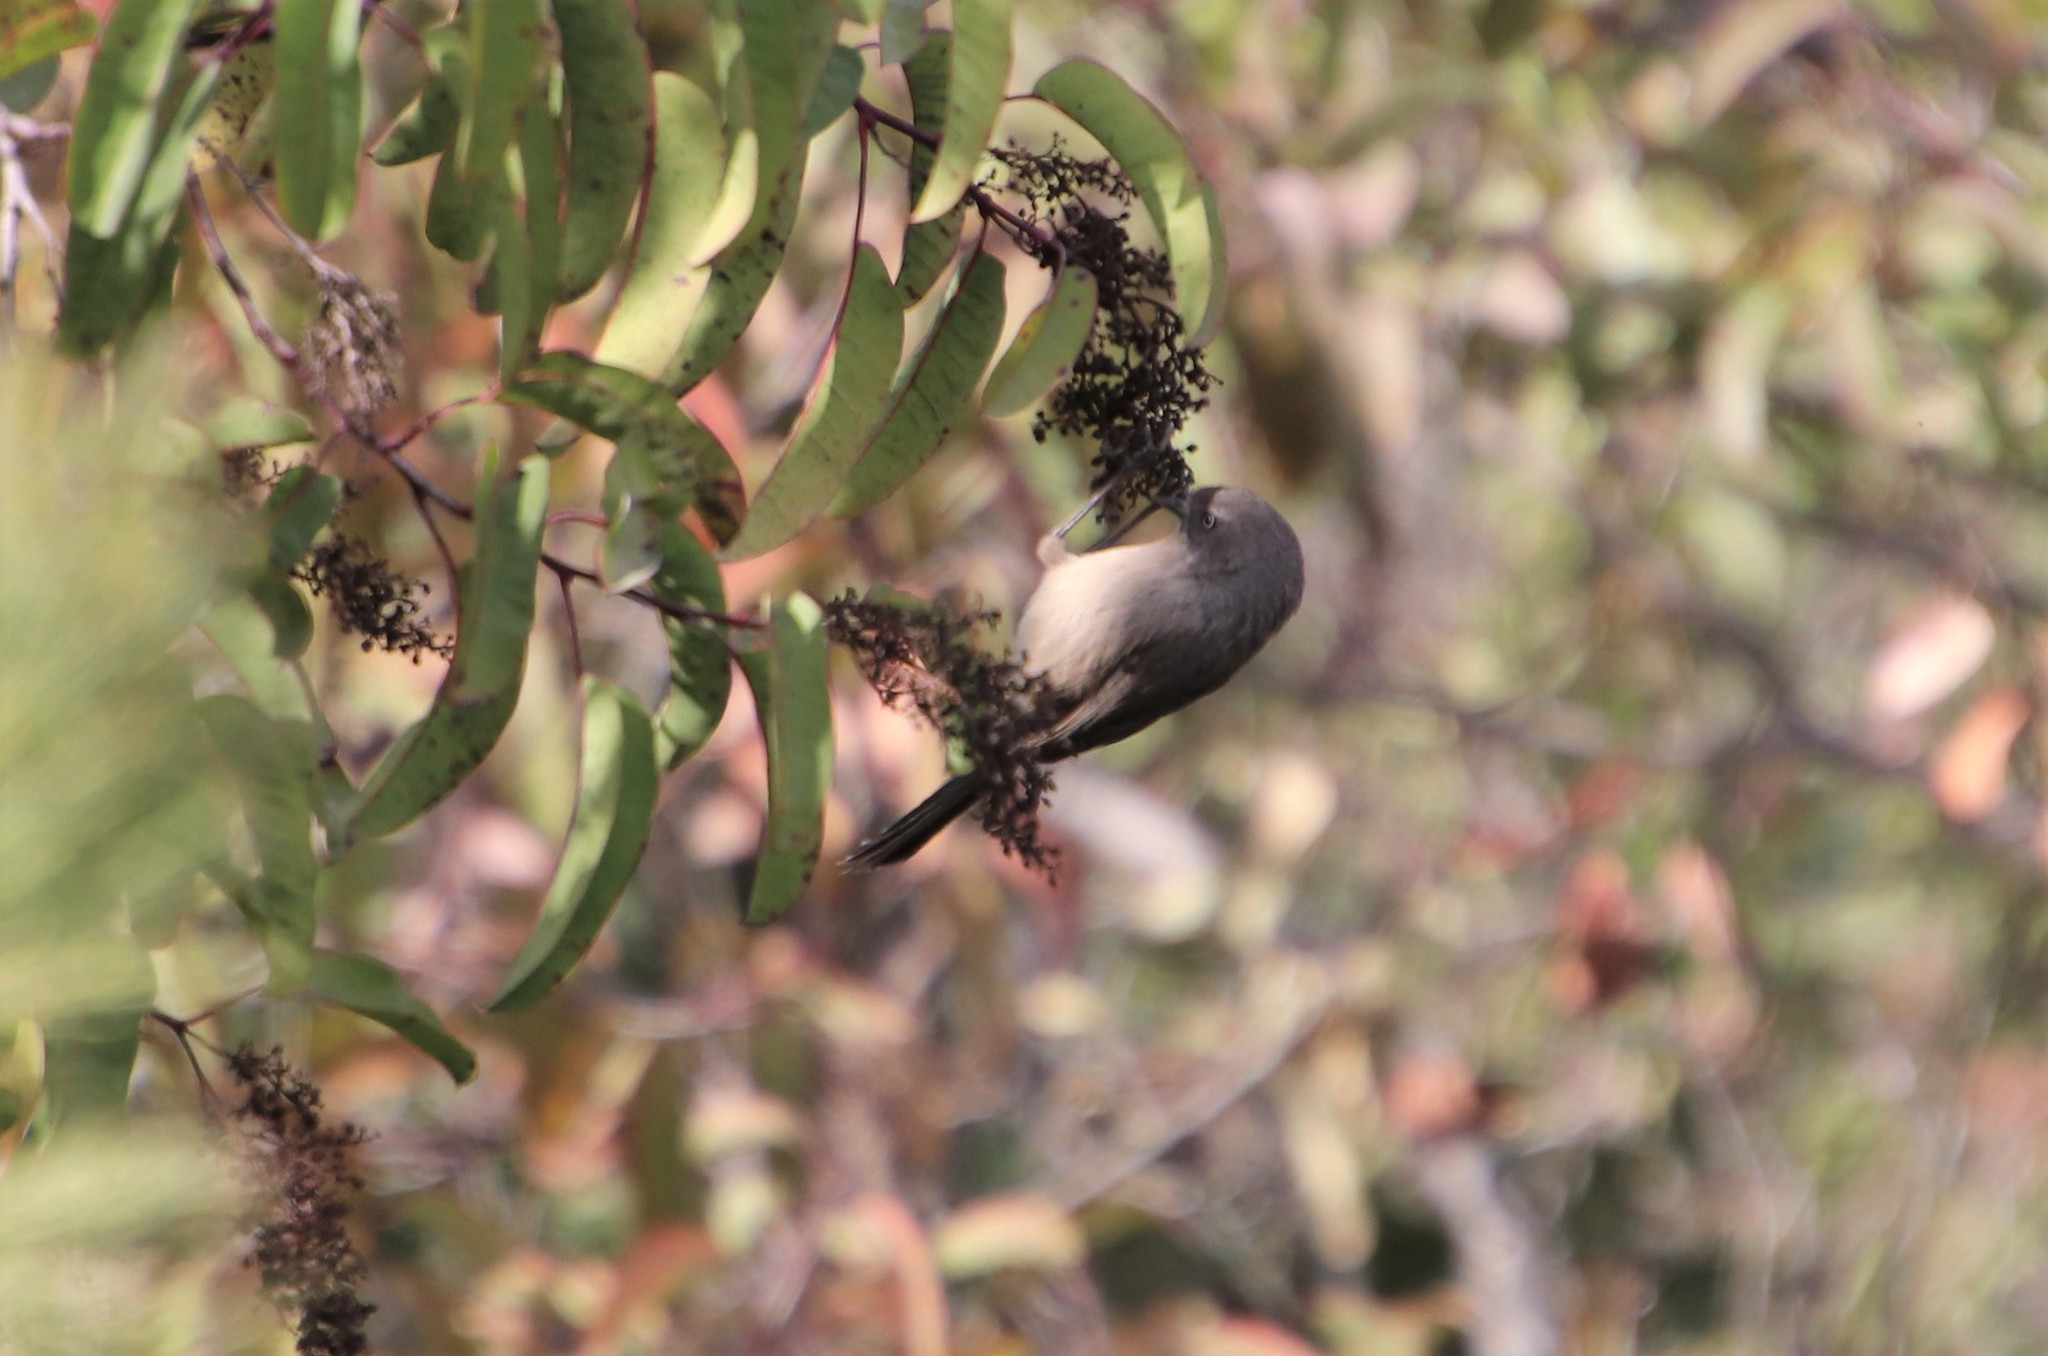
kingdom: Animalia
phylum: Chordata
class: Aves
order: Passeriformes
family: Aegithalidae
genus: Psaltriparus
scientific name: Psaltriparus minimus
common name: American bushtit
